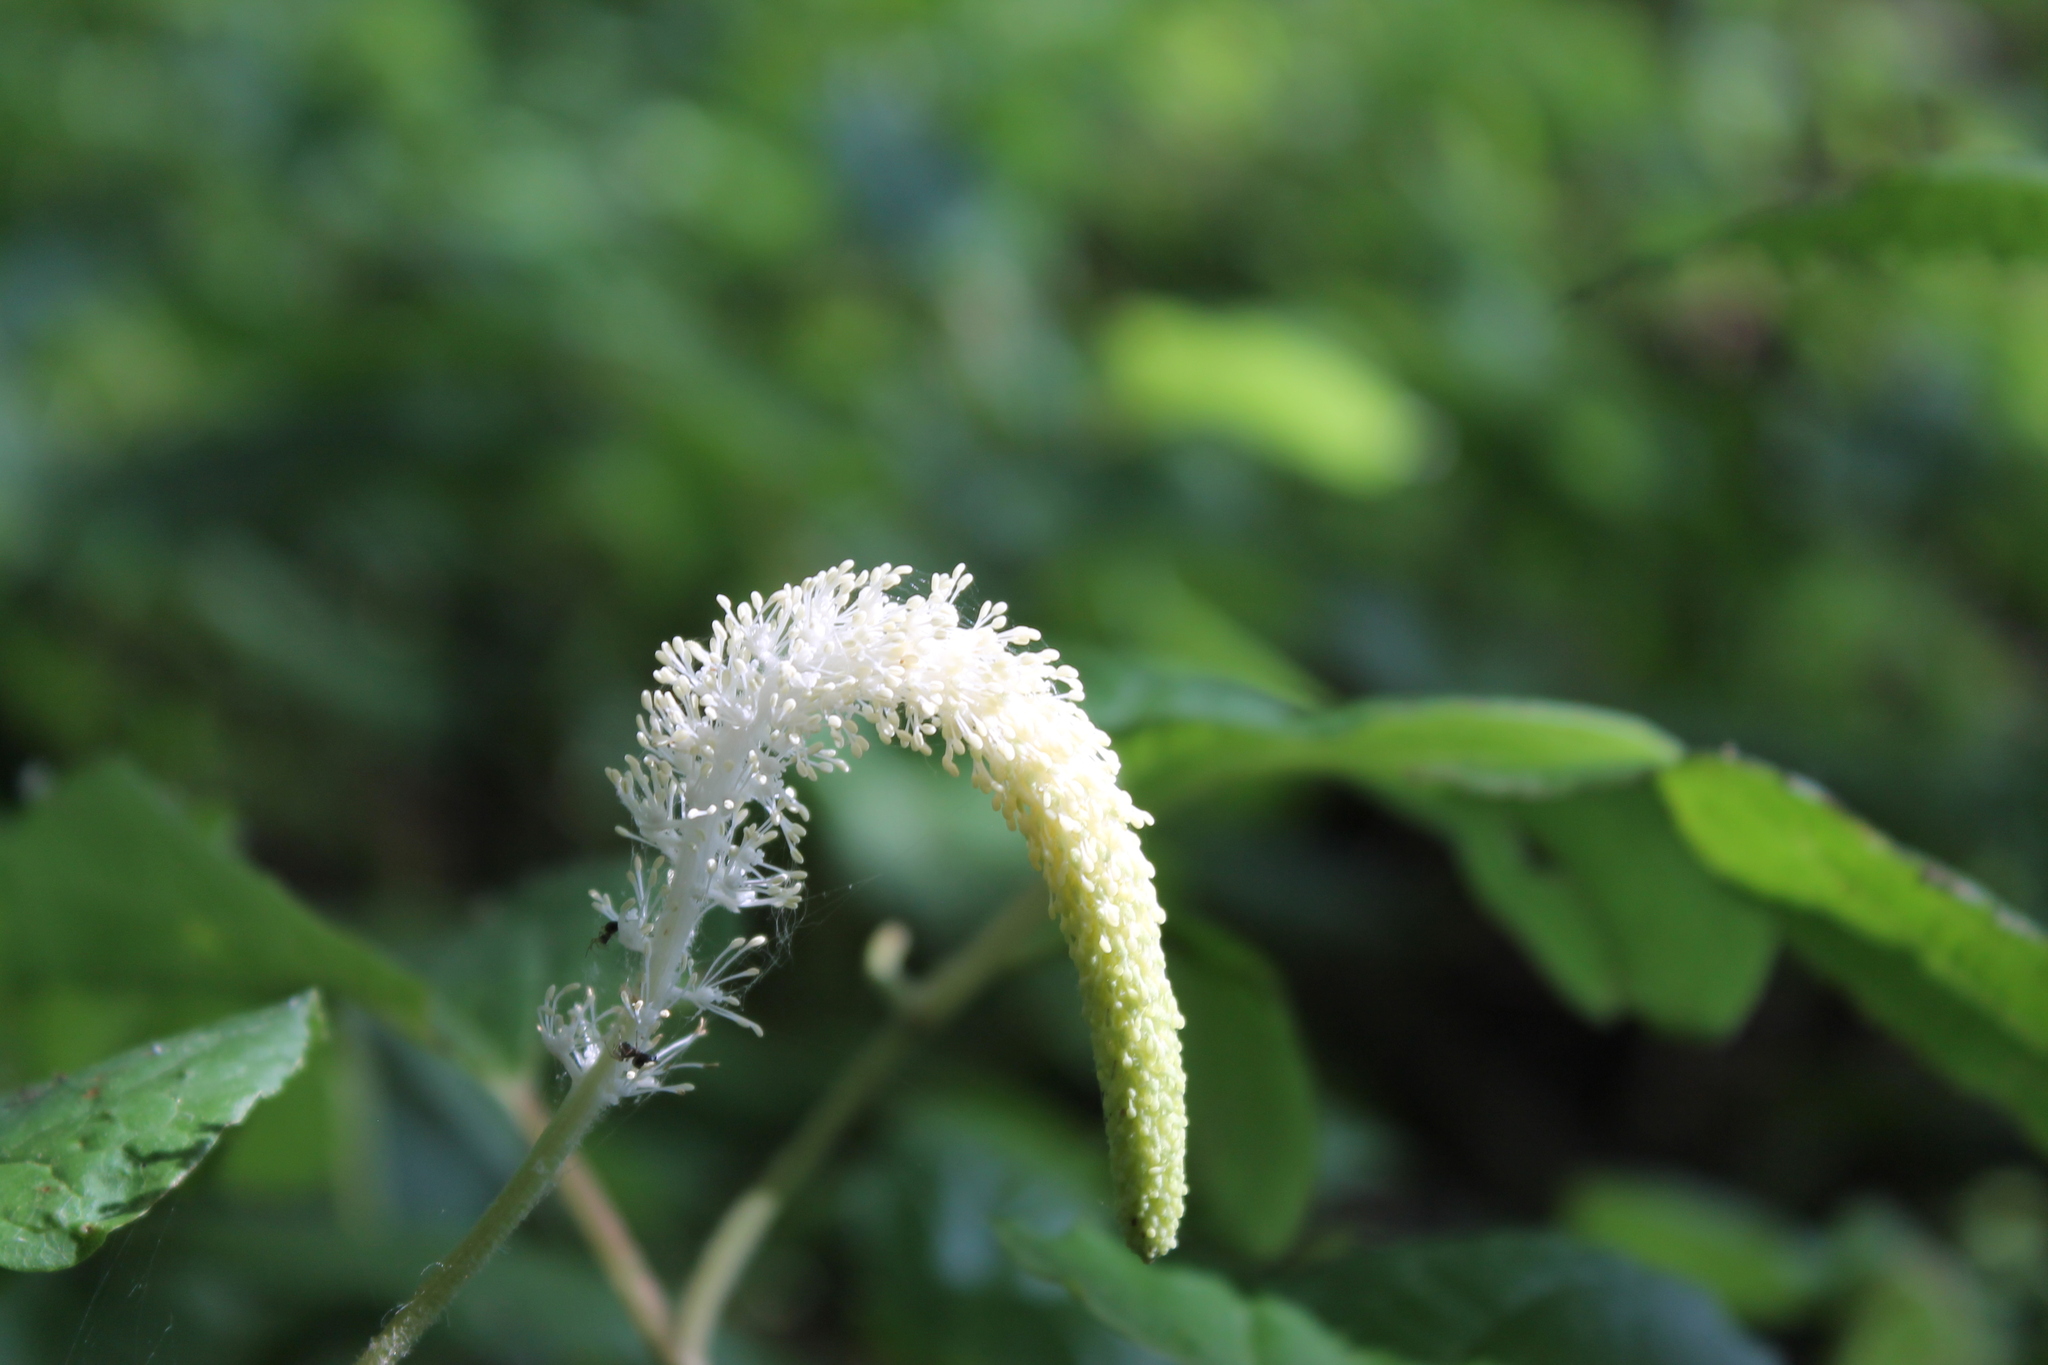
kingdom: Plantae
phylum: Tracheophyta
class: Magnoliopsida
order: Piperales
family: Saururaceae
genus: Saururus
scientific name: Saururus cernuus
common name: Lizard's-tail
